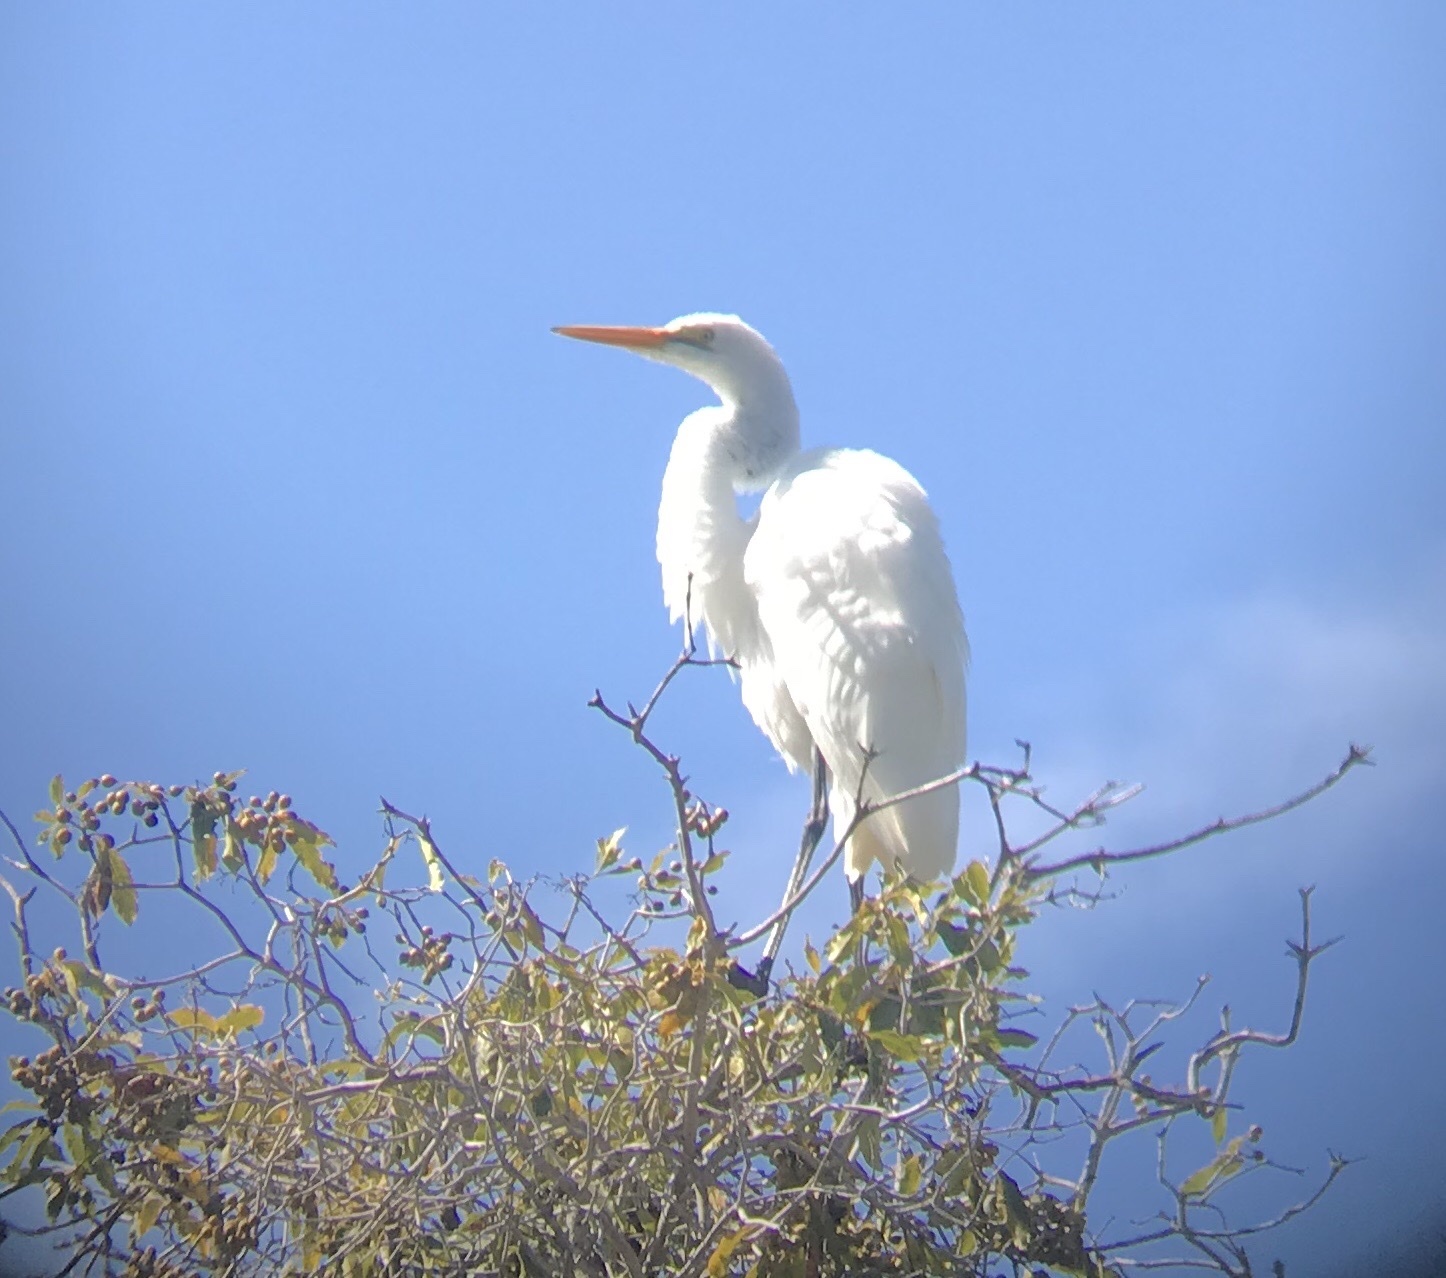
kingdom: Animalia
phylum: Chordata
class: Aves
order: Pelecaniformes
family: Ardeidae
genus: Ardea
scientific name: Ardea alba
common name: Great egret
